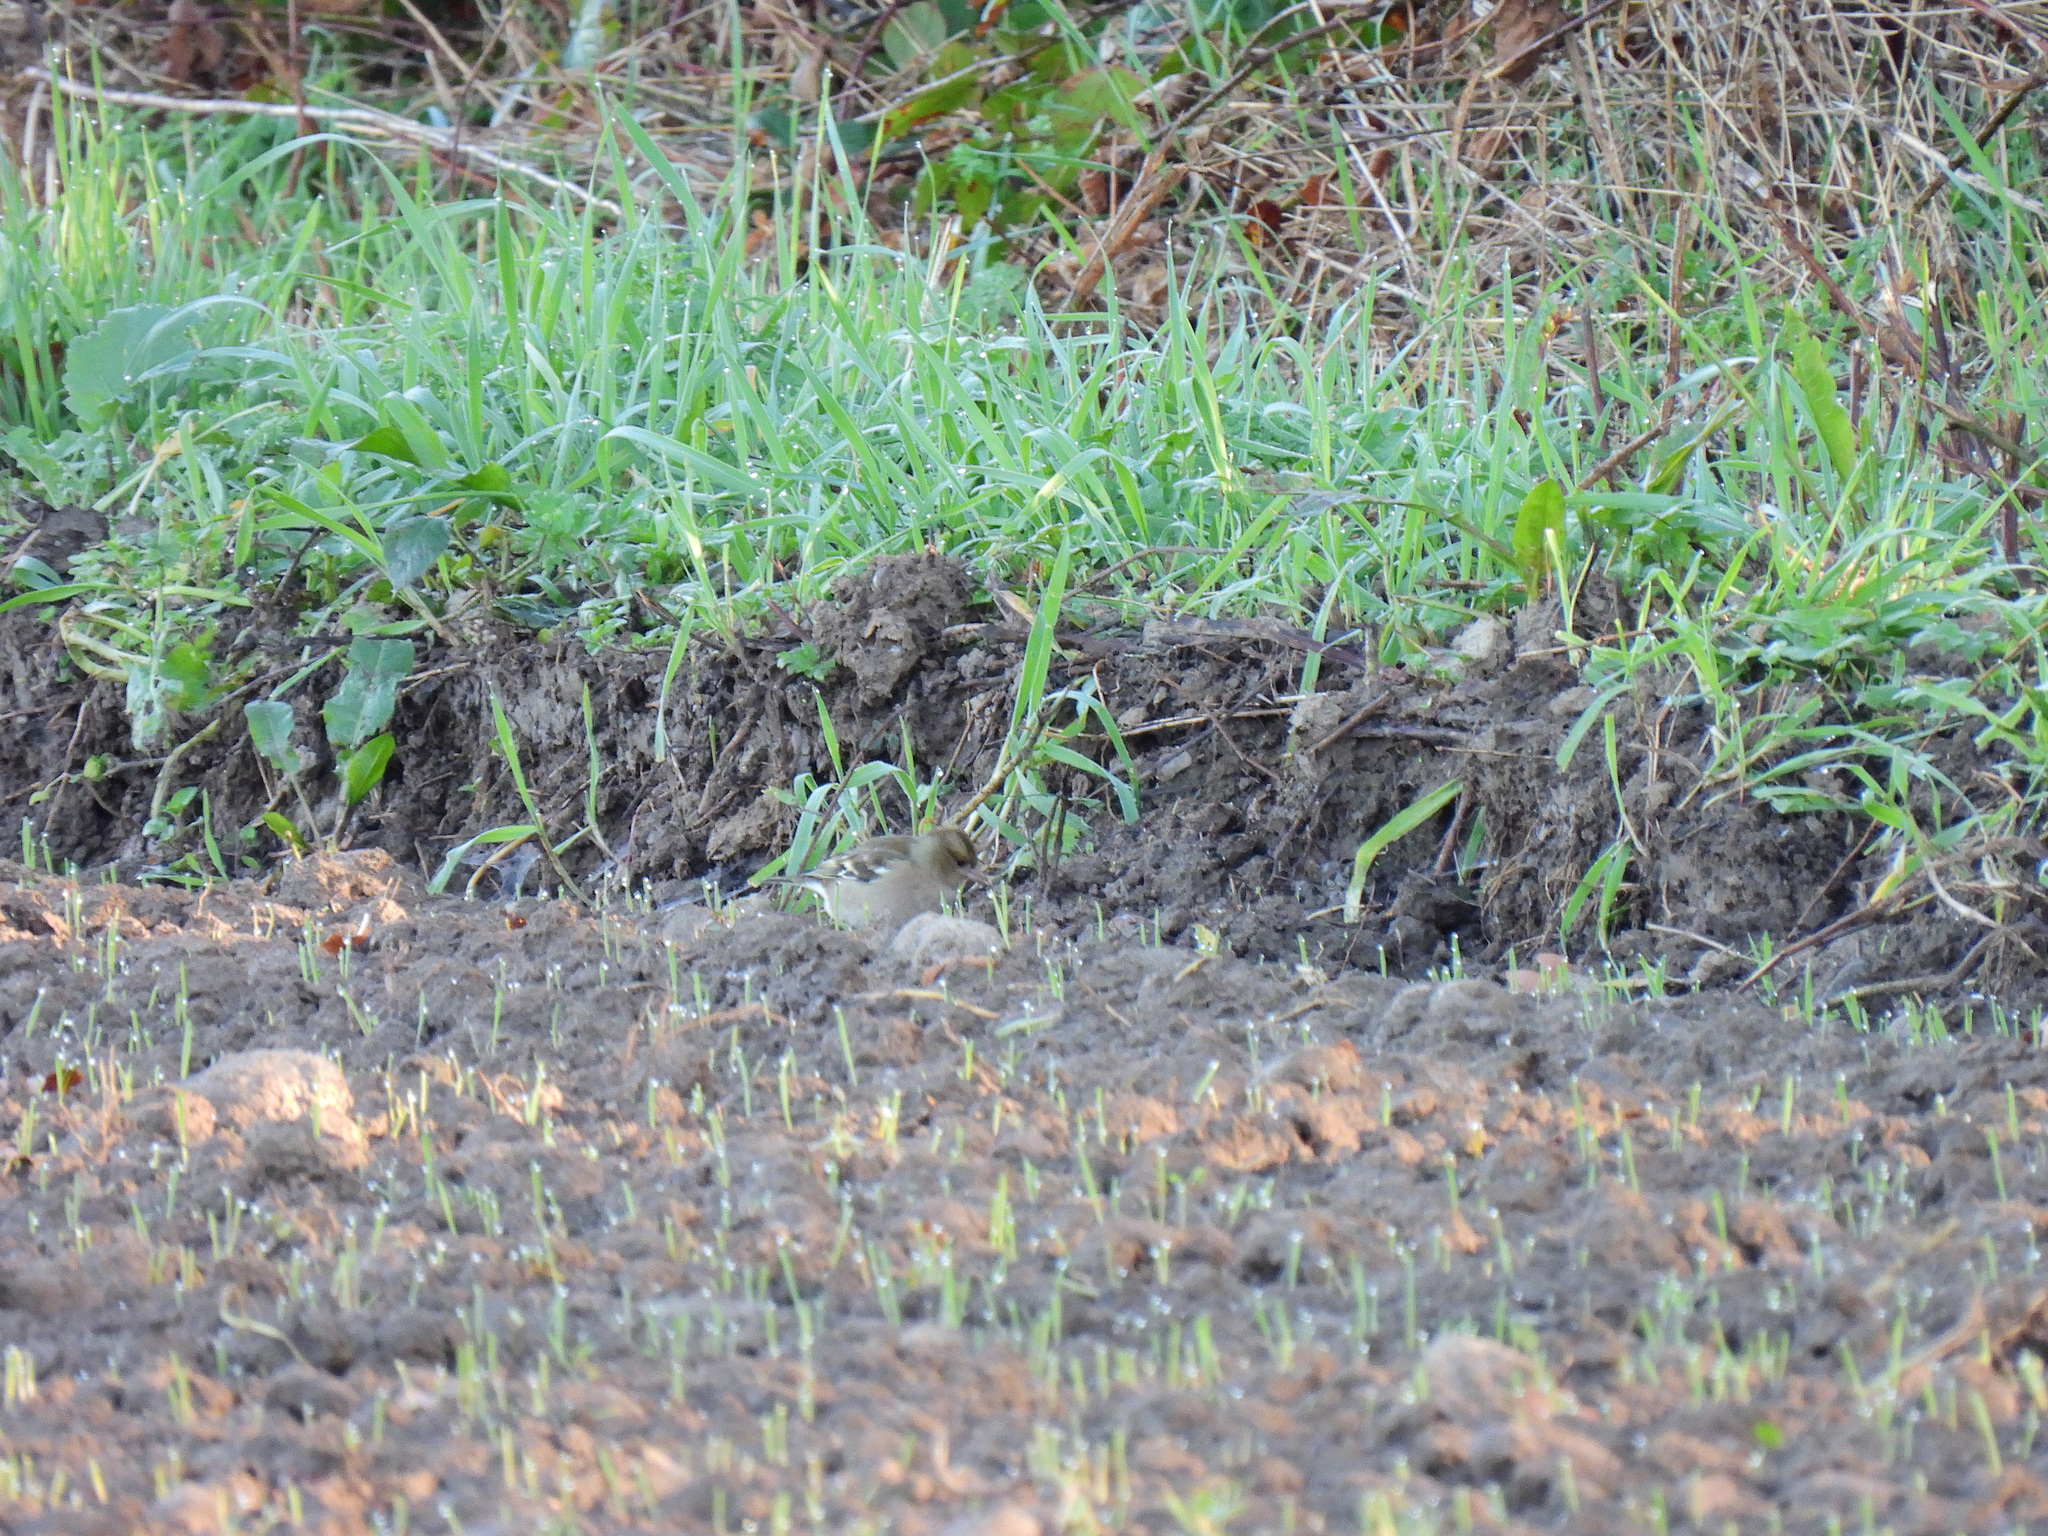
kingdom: Animalia
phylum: Chordata
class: Aves
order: Passeriformes
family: Fringillidae
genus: Fringilla
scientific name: Fringilla coelebs
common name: Common chaffinch
